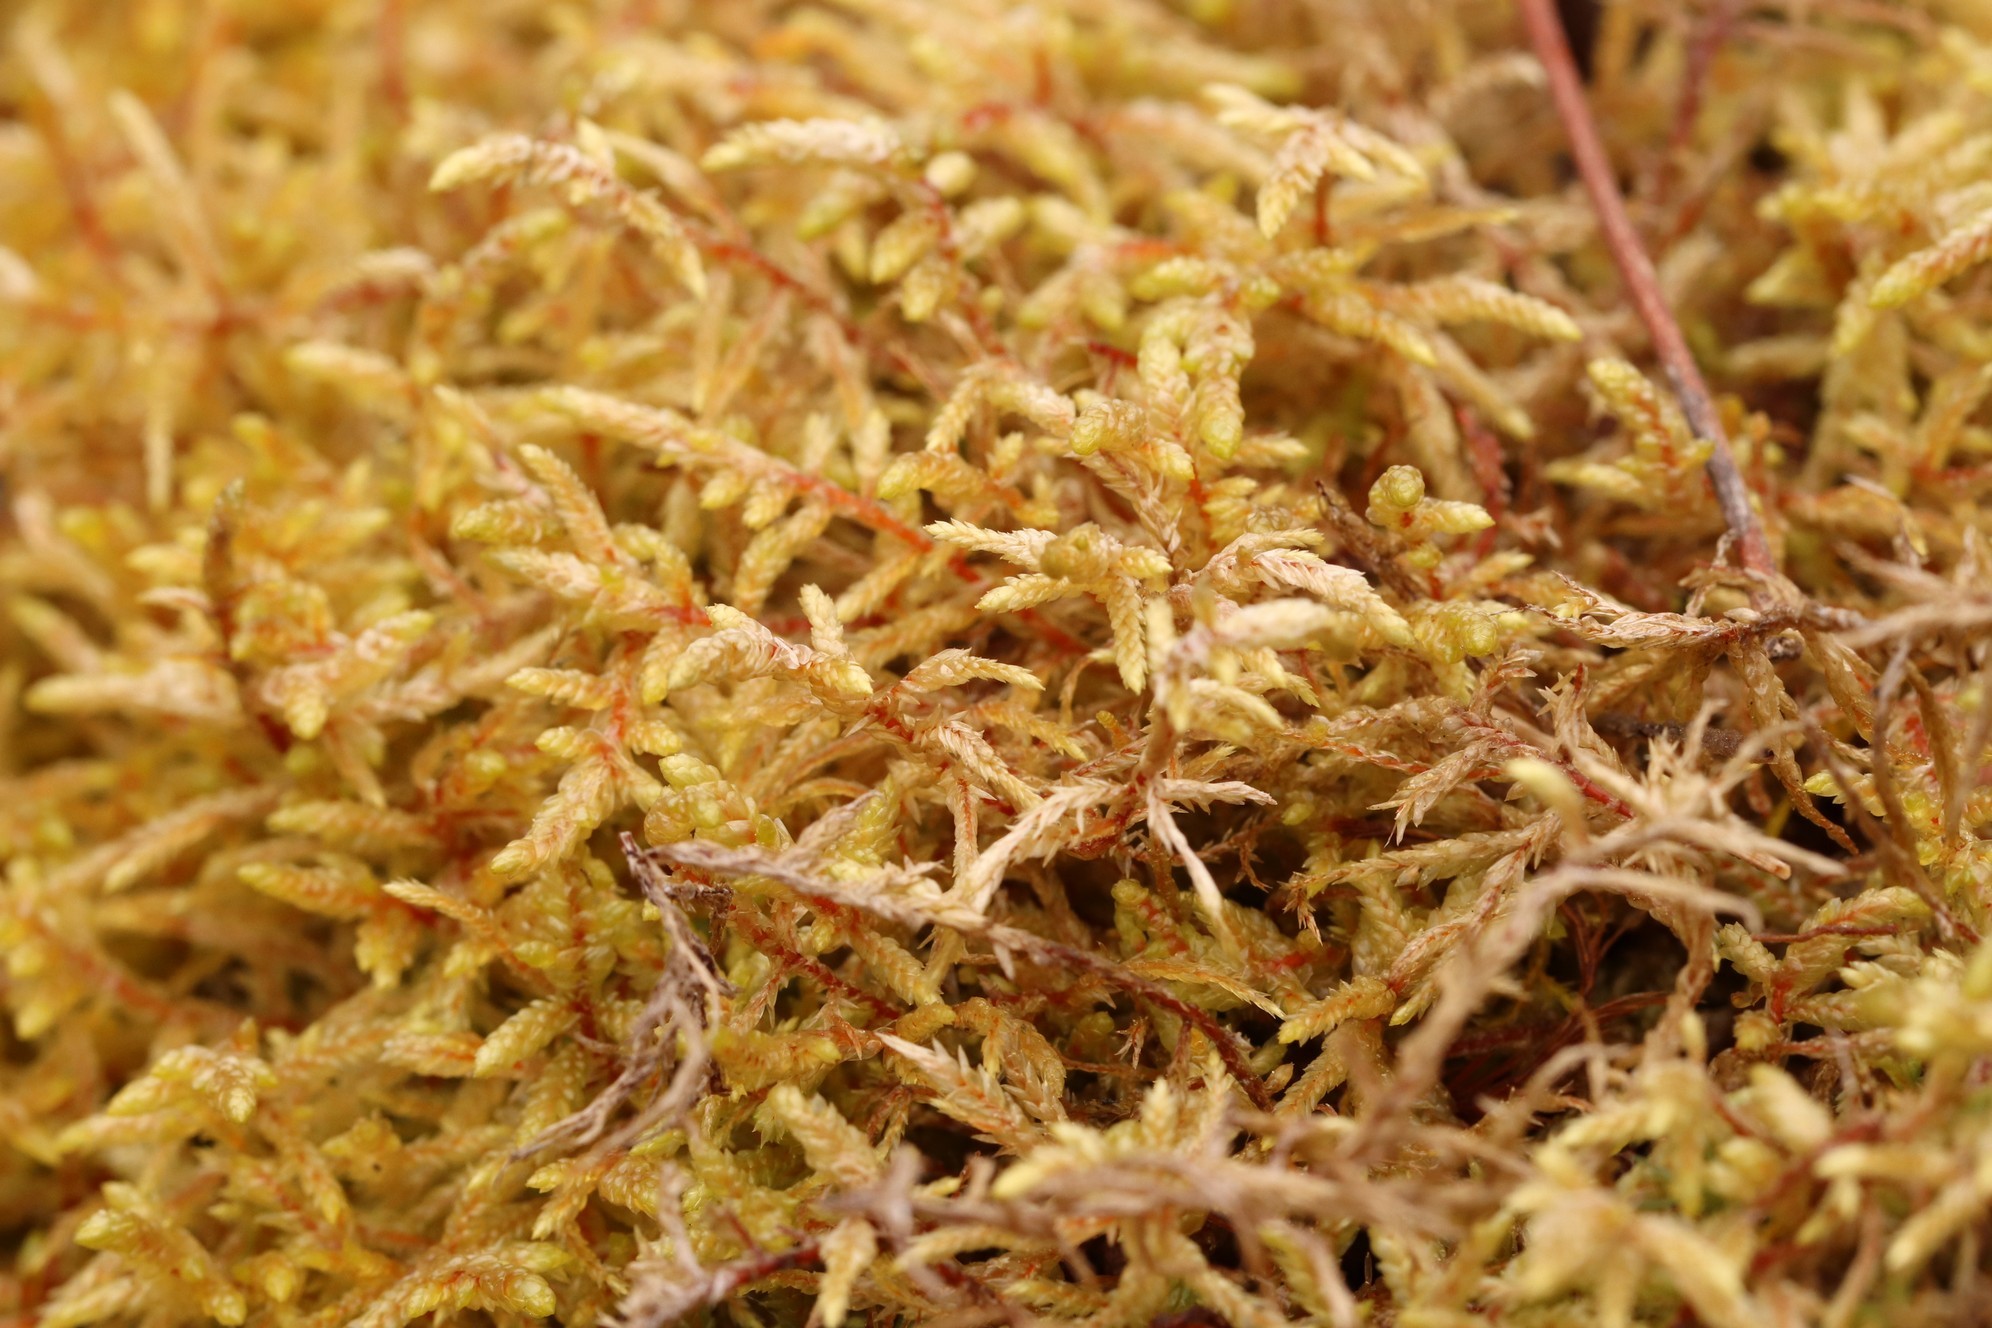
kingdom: Plantae
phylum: Bryophyta
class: Bryopsida
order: Hypnales
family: Hylocomiaceae
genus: Pleurozium
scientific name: Pleurozium schreberi
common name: Red-stemmed feather moss
